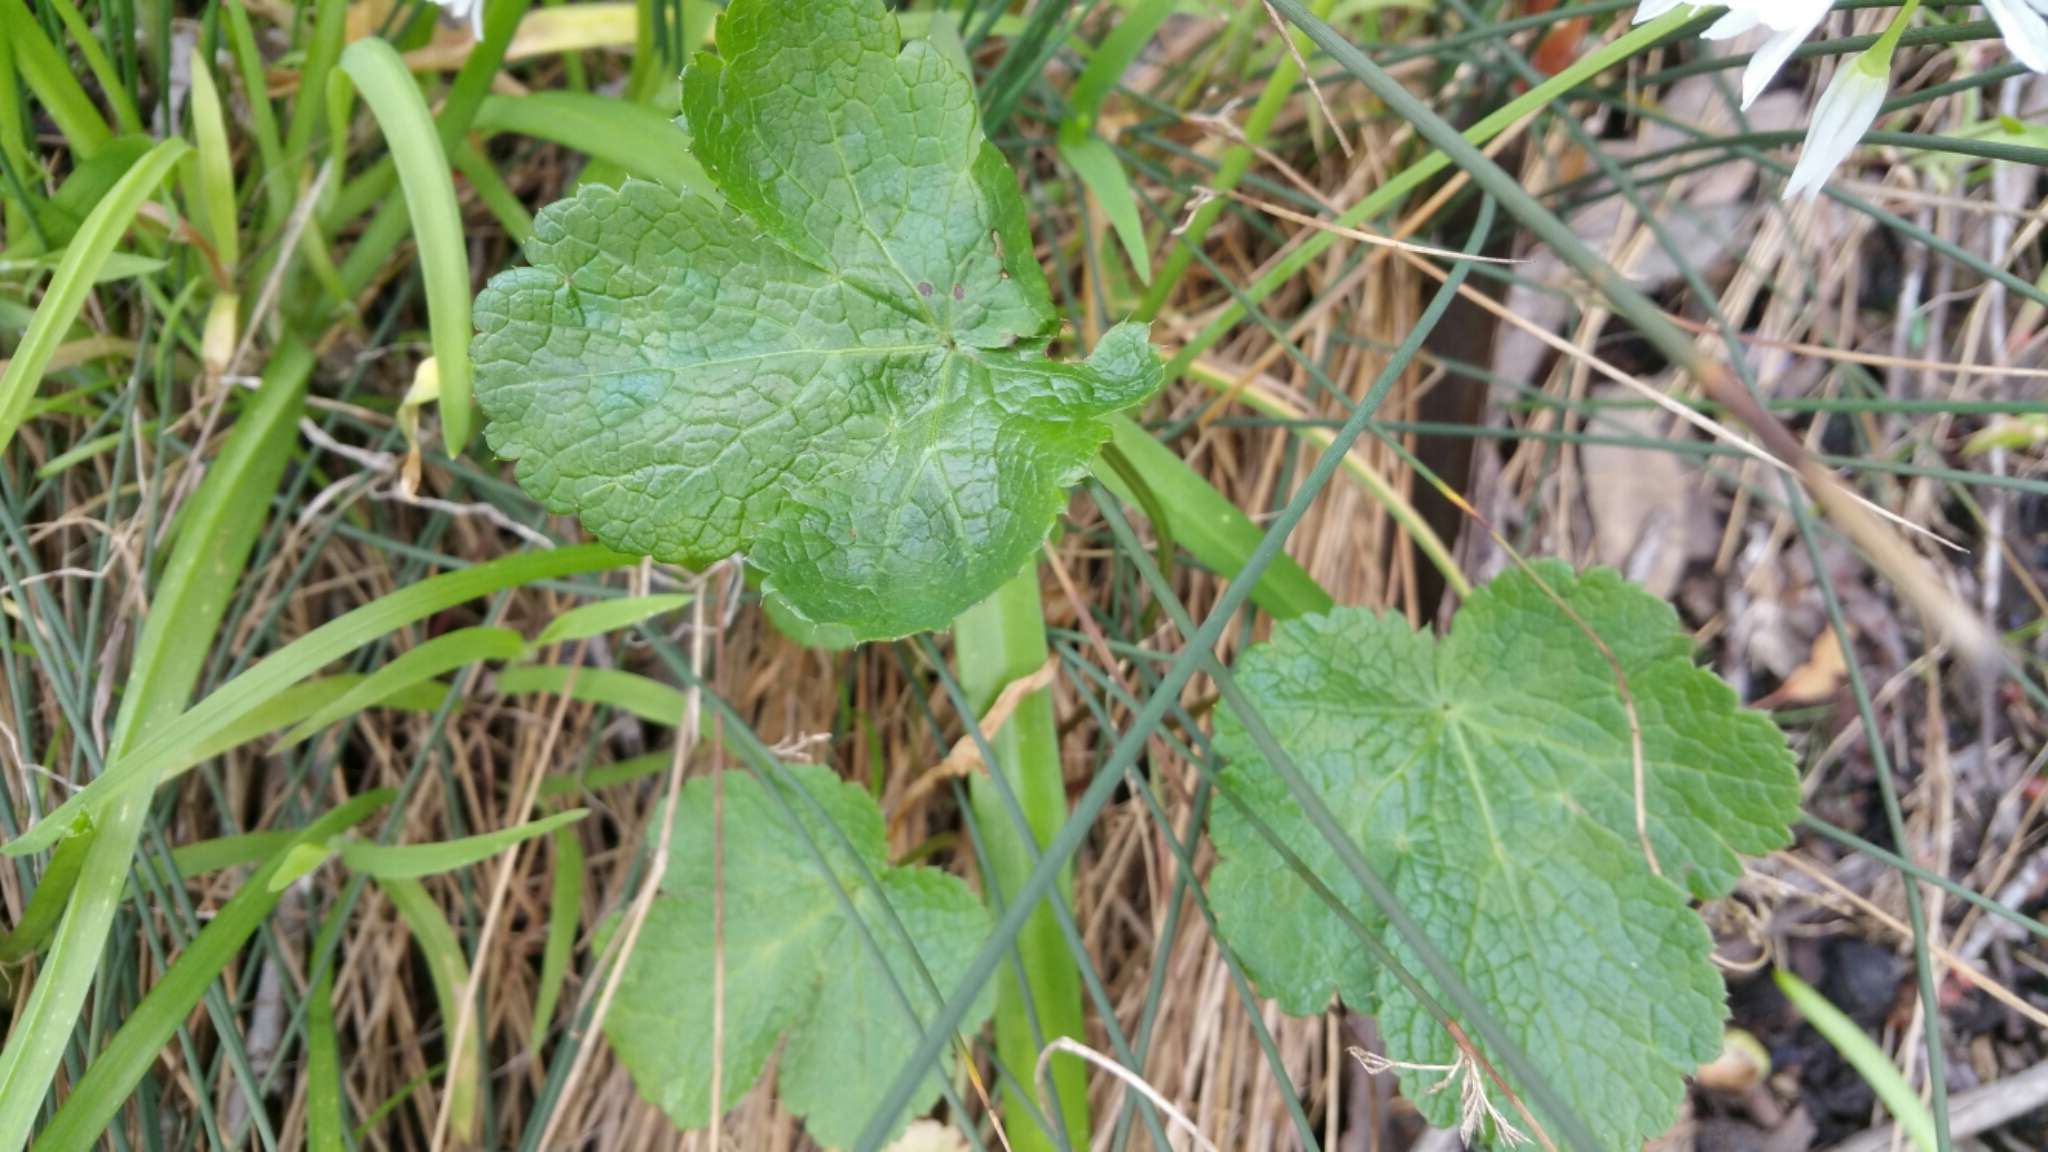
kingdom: Plantae
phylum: Tracheophyta
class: Magnoliopsida
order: Apiales
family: Apiaceae
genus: Sanicula
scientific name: Sanicula crassicaulis
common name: Western snakeroot
